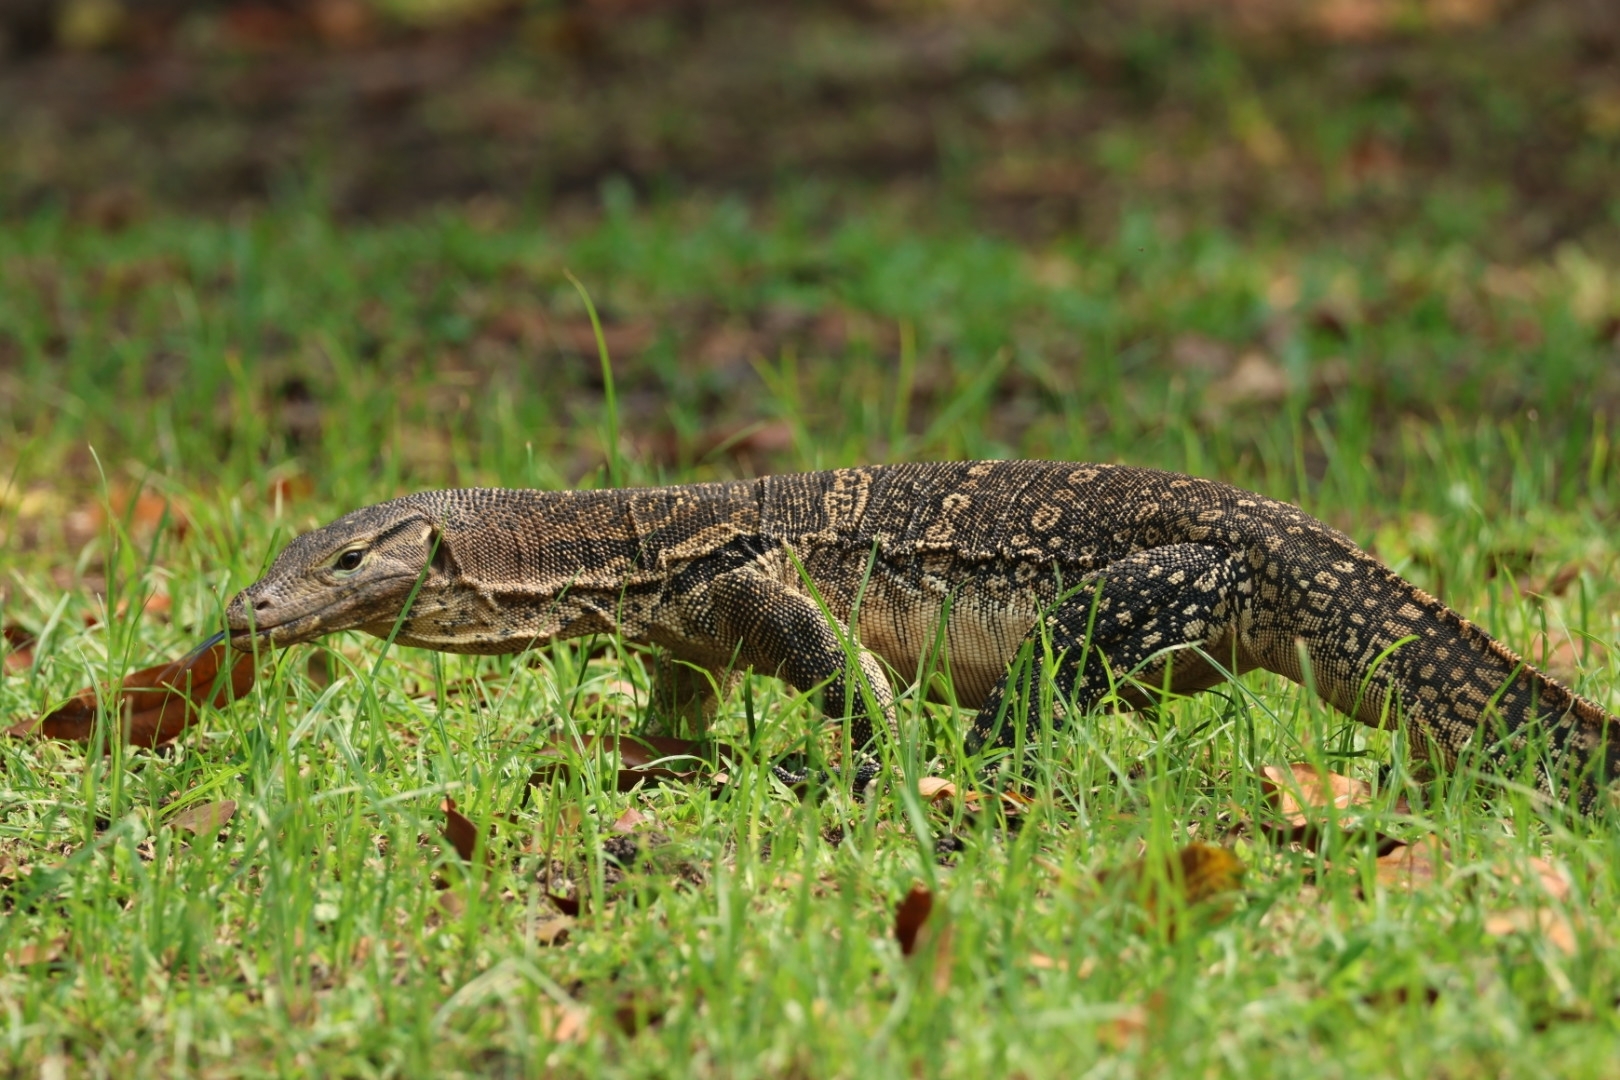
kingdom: Animalia
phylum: Chordata
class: Squamata
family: Varanidae
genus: Varanus
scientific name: Varanus salvator
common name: Common water monitor
